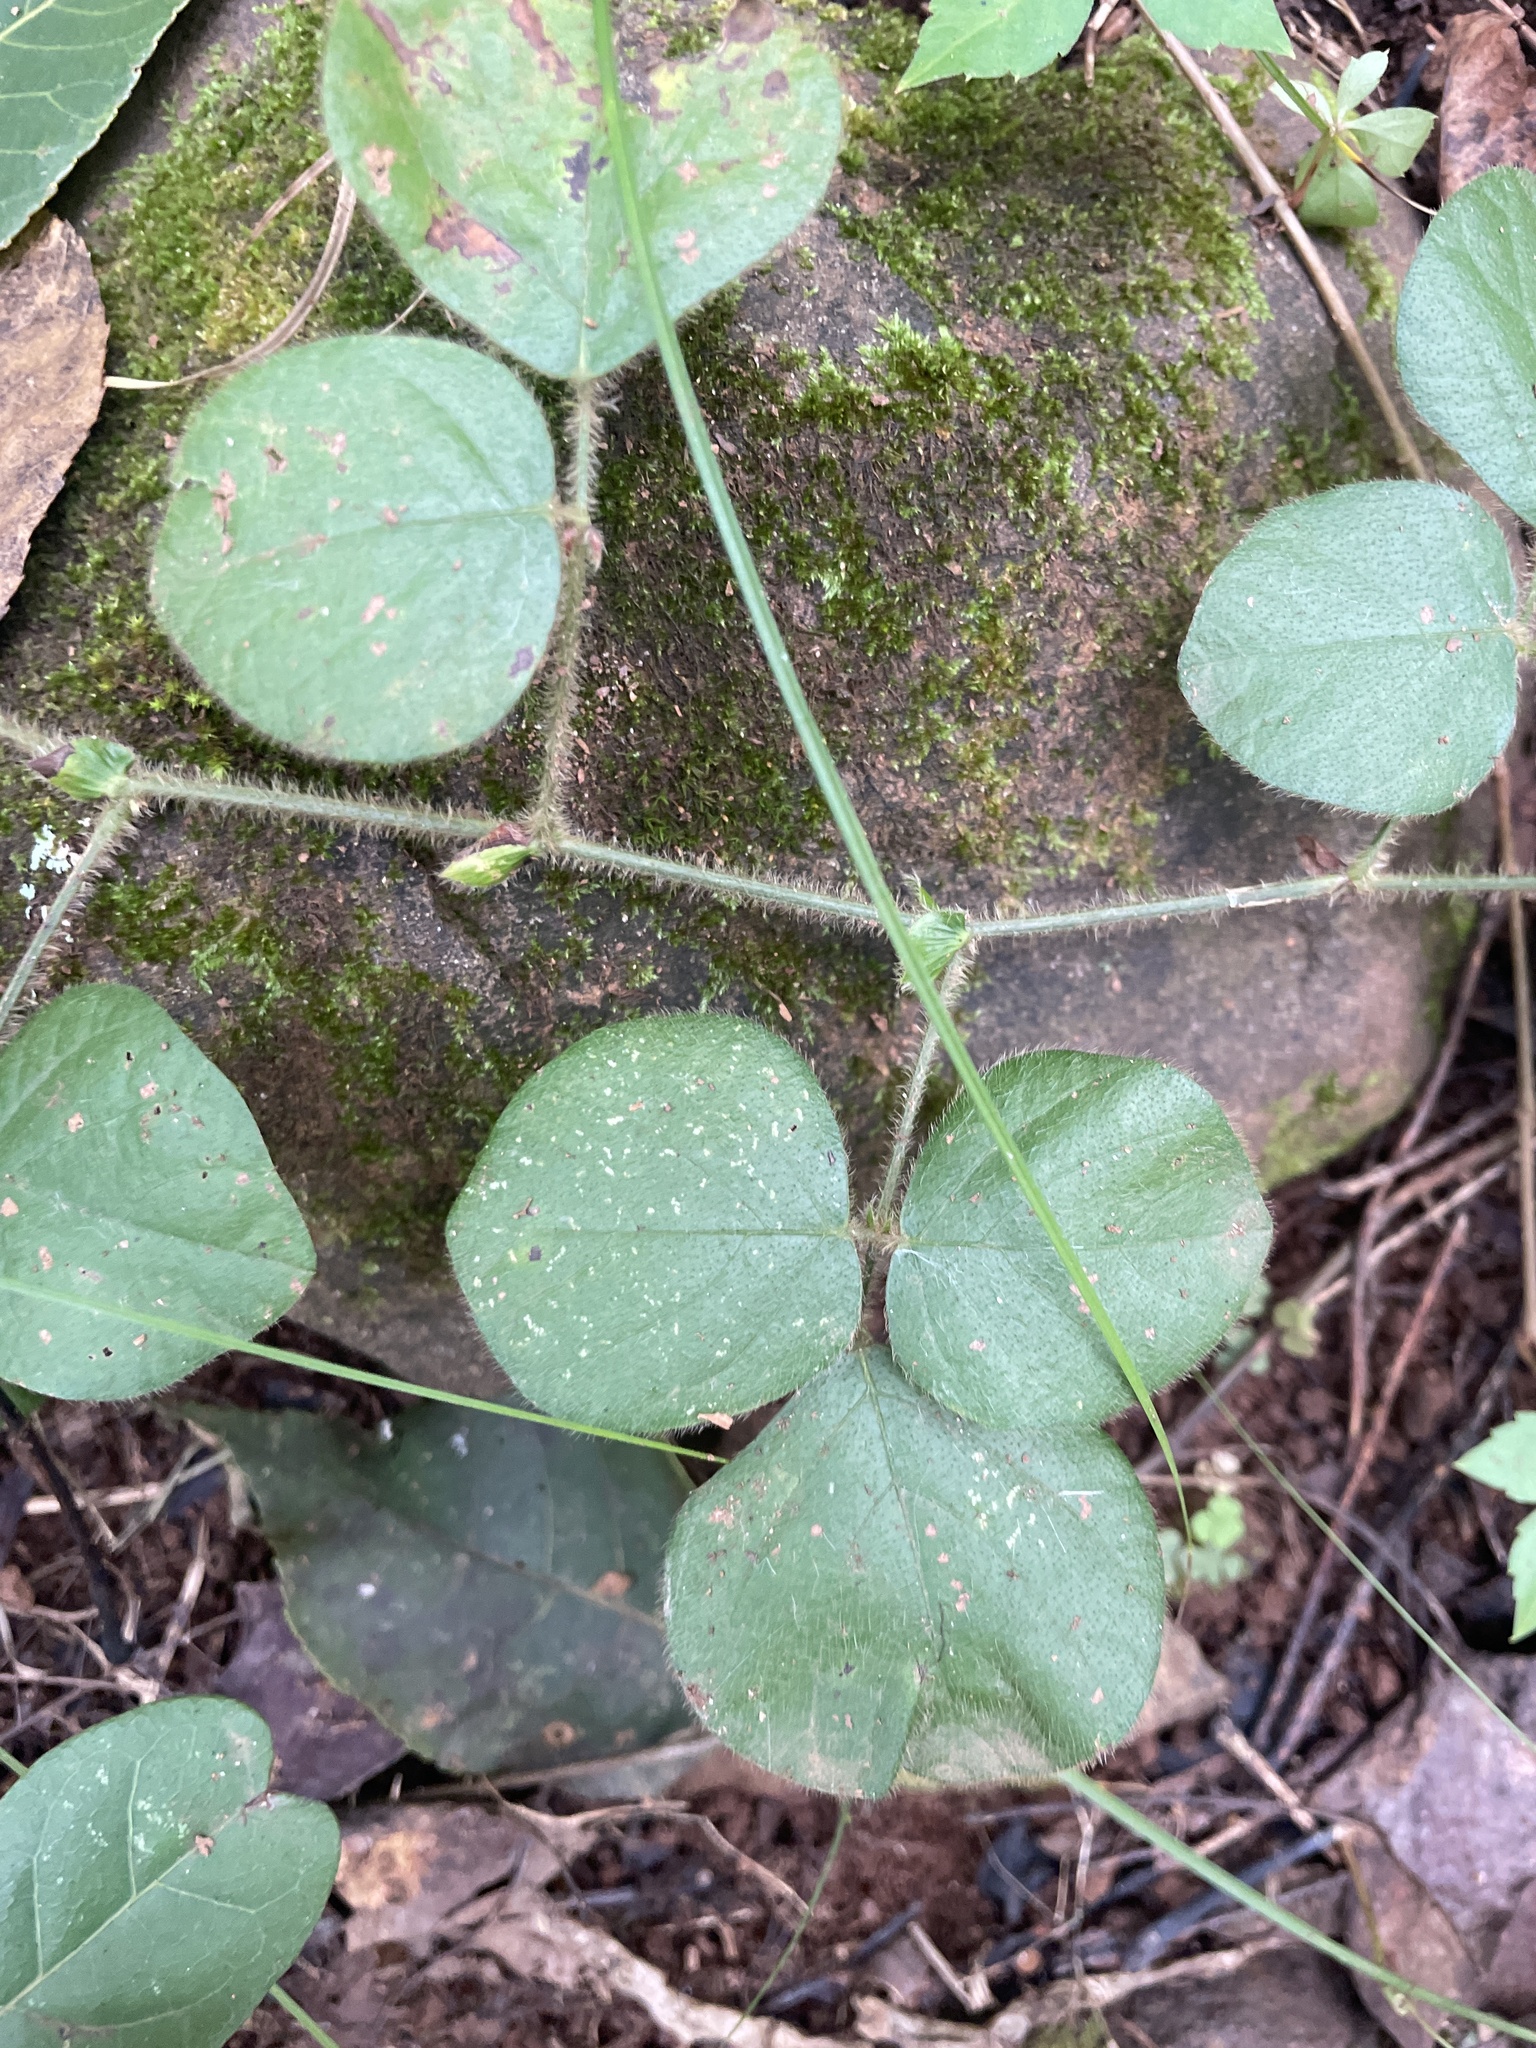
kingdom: Plantae
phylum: Tracheophyta
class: Magnoliopsida
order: Fabales
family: Fabaceae
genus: Desmodium
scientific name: Desmodium rotundifolium
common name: Dollarleaf
